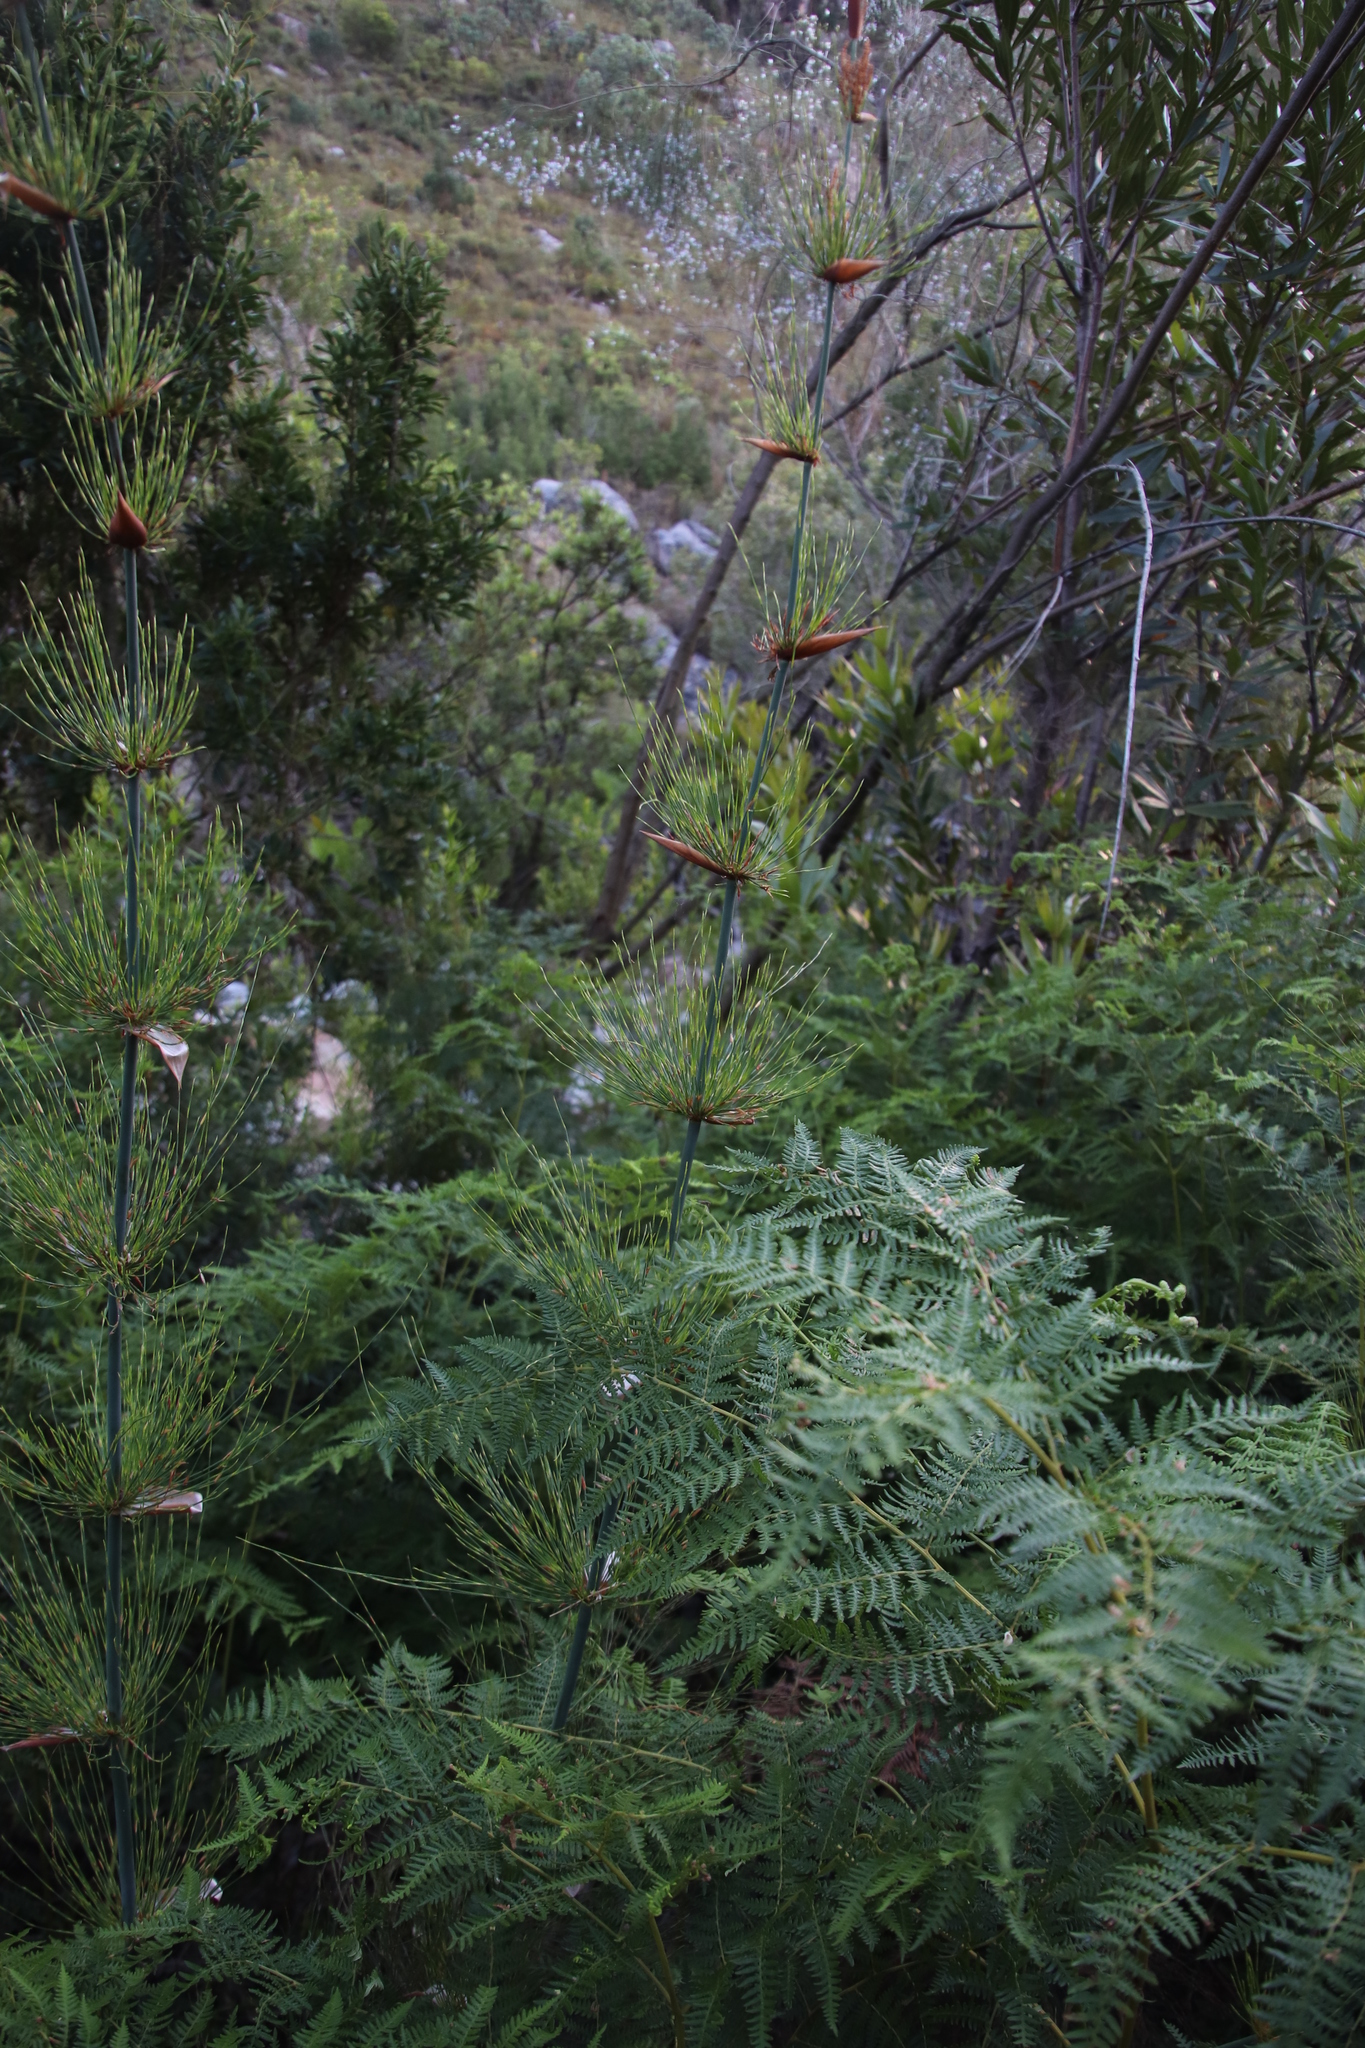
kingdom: Plantae
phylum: Tracheophyta
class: Liliopsida
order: Poales
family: Restionaceae
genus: Elegia
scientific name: Elegia capensis
